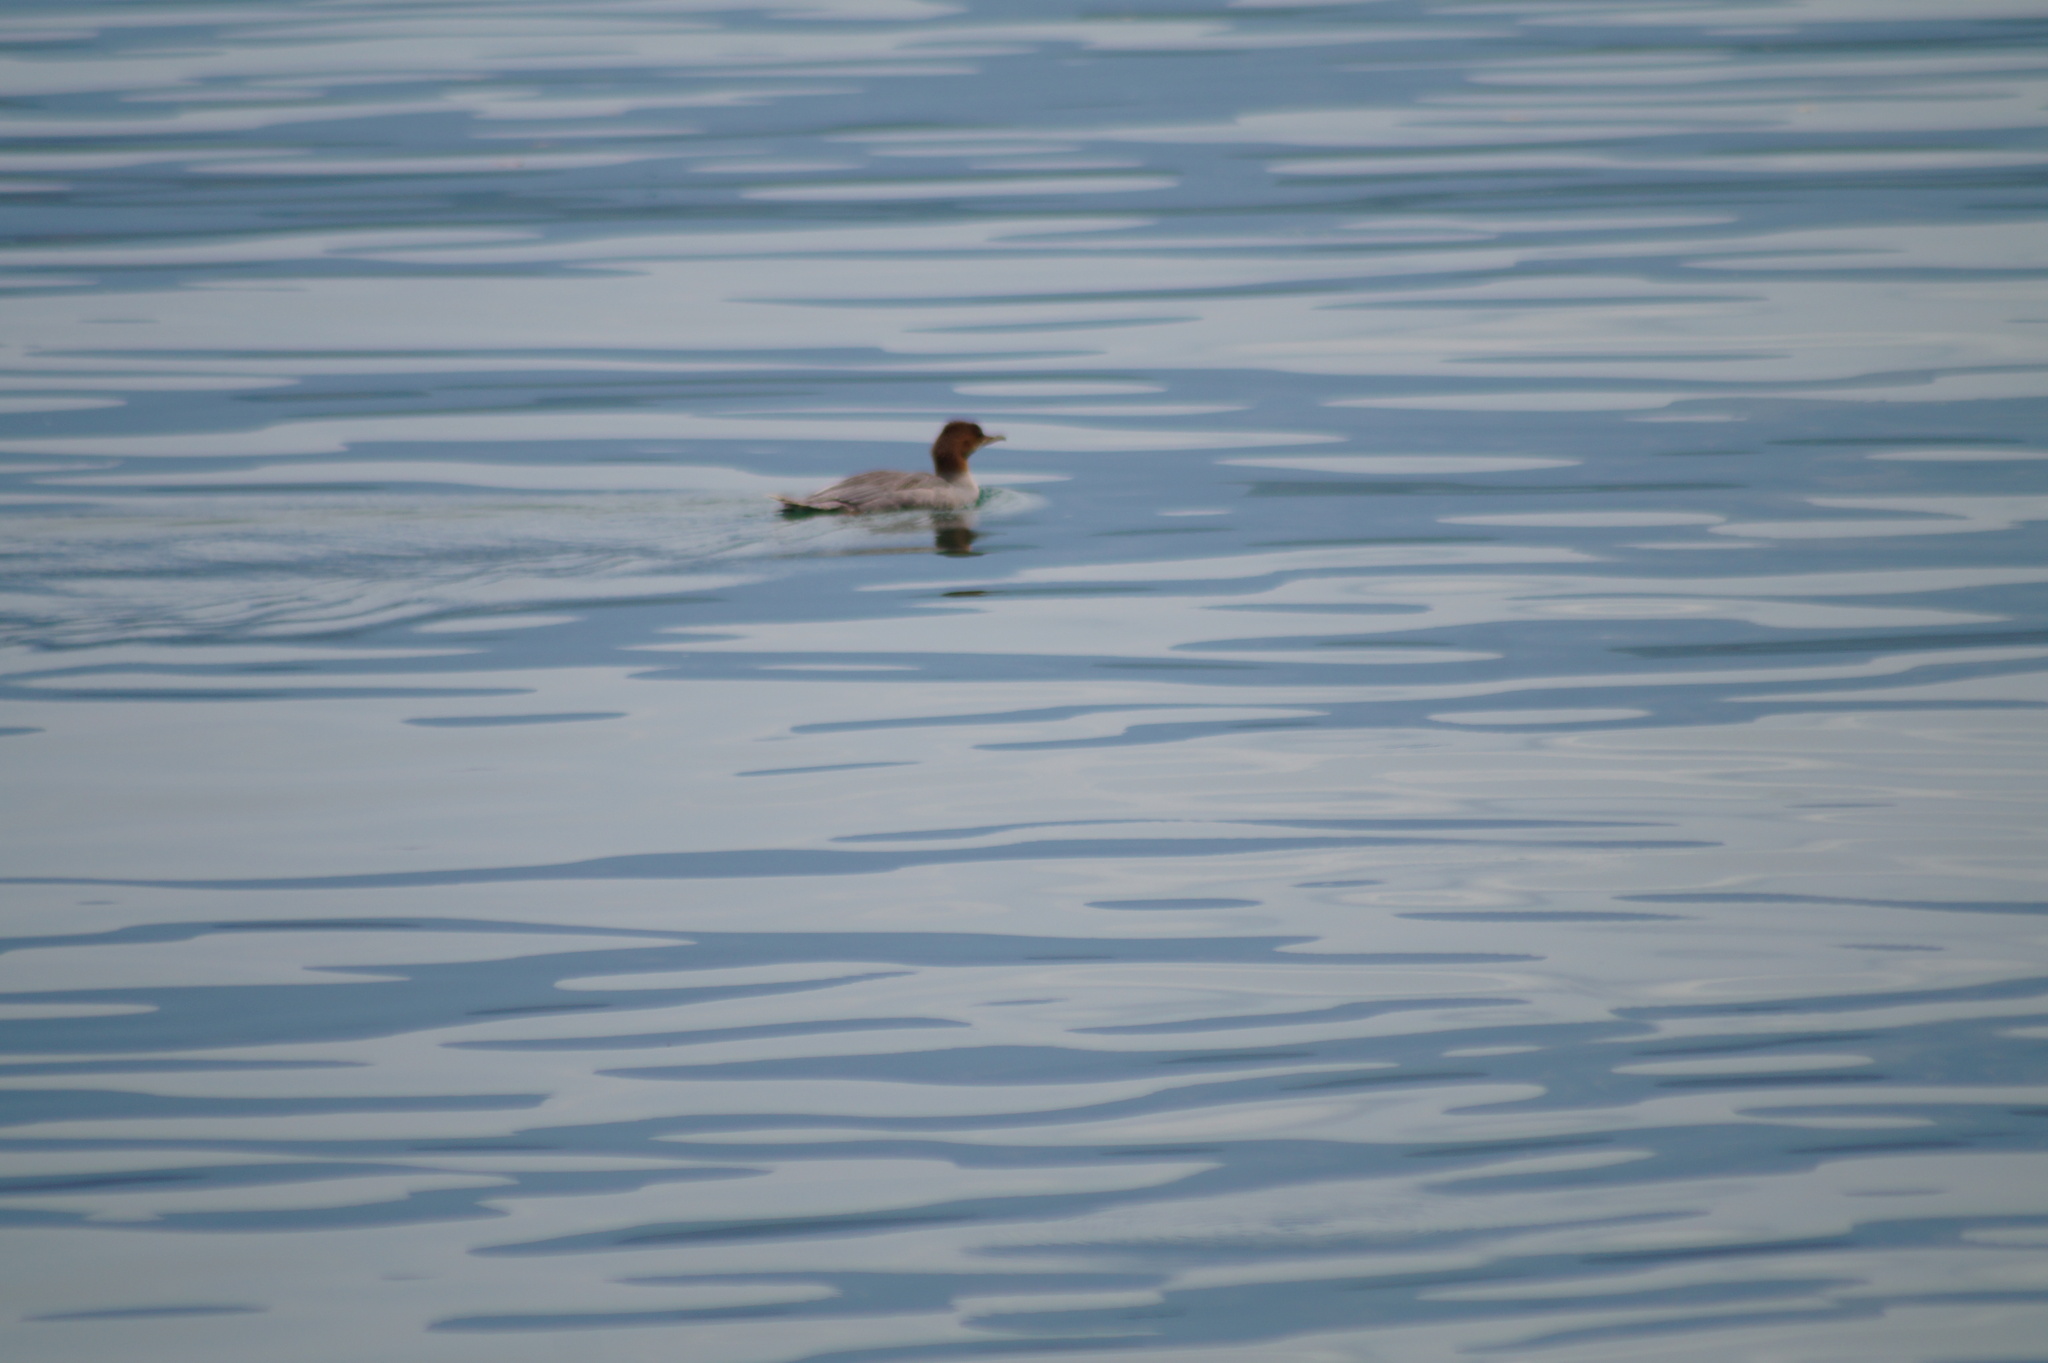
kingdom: Animalia
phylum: Chordata
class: Aves
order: Anseriformes
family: Anatidae
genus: Mergus
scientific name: Mergus merganser
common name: Common merganser
